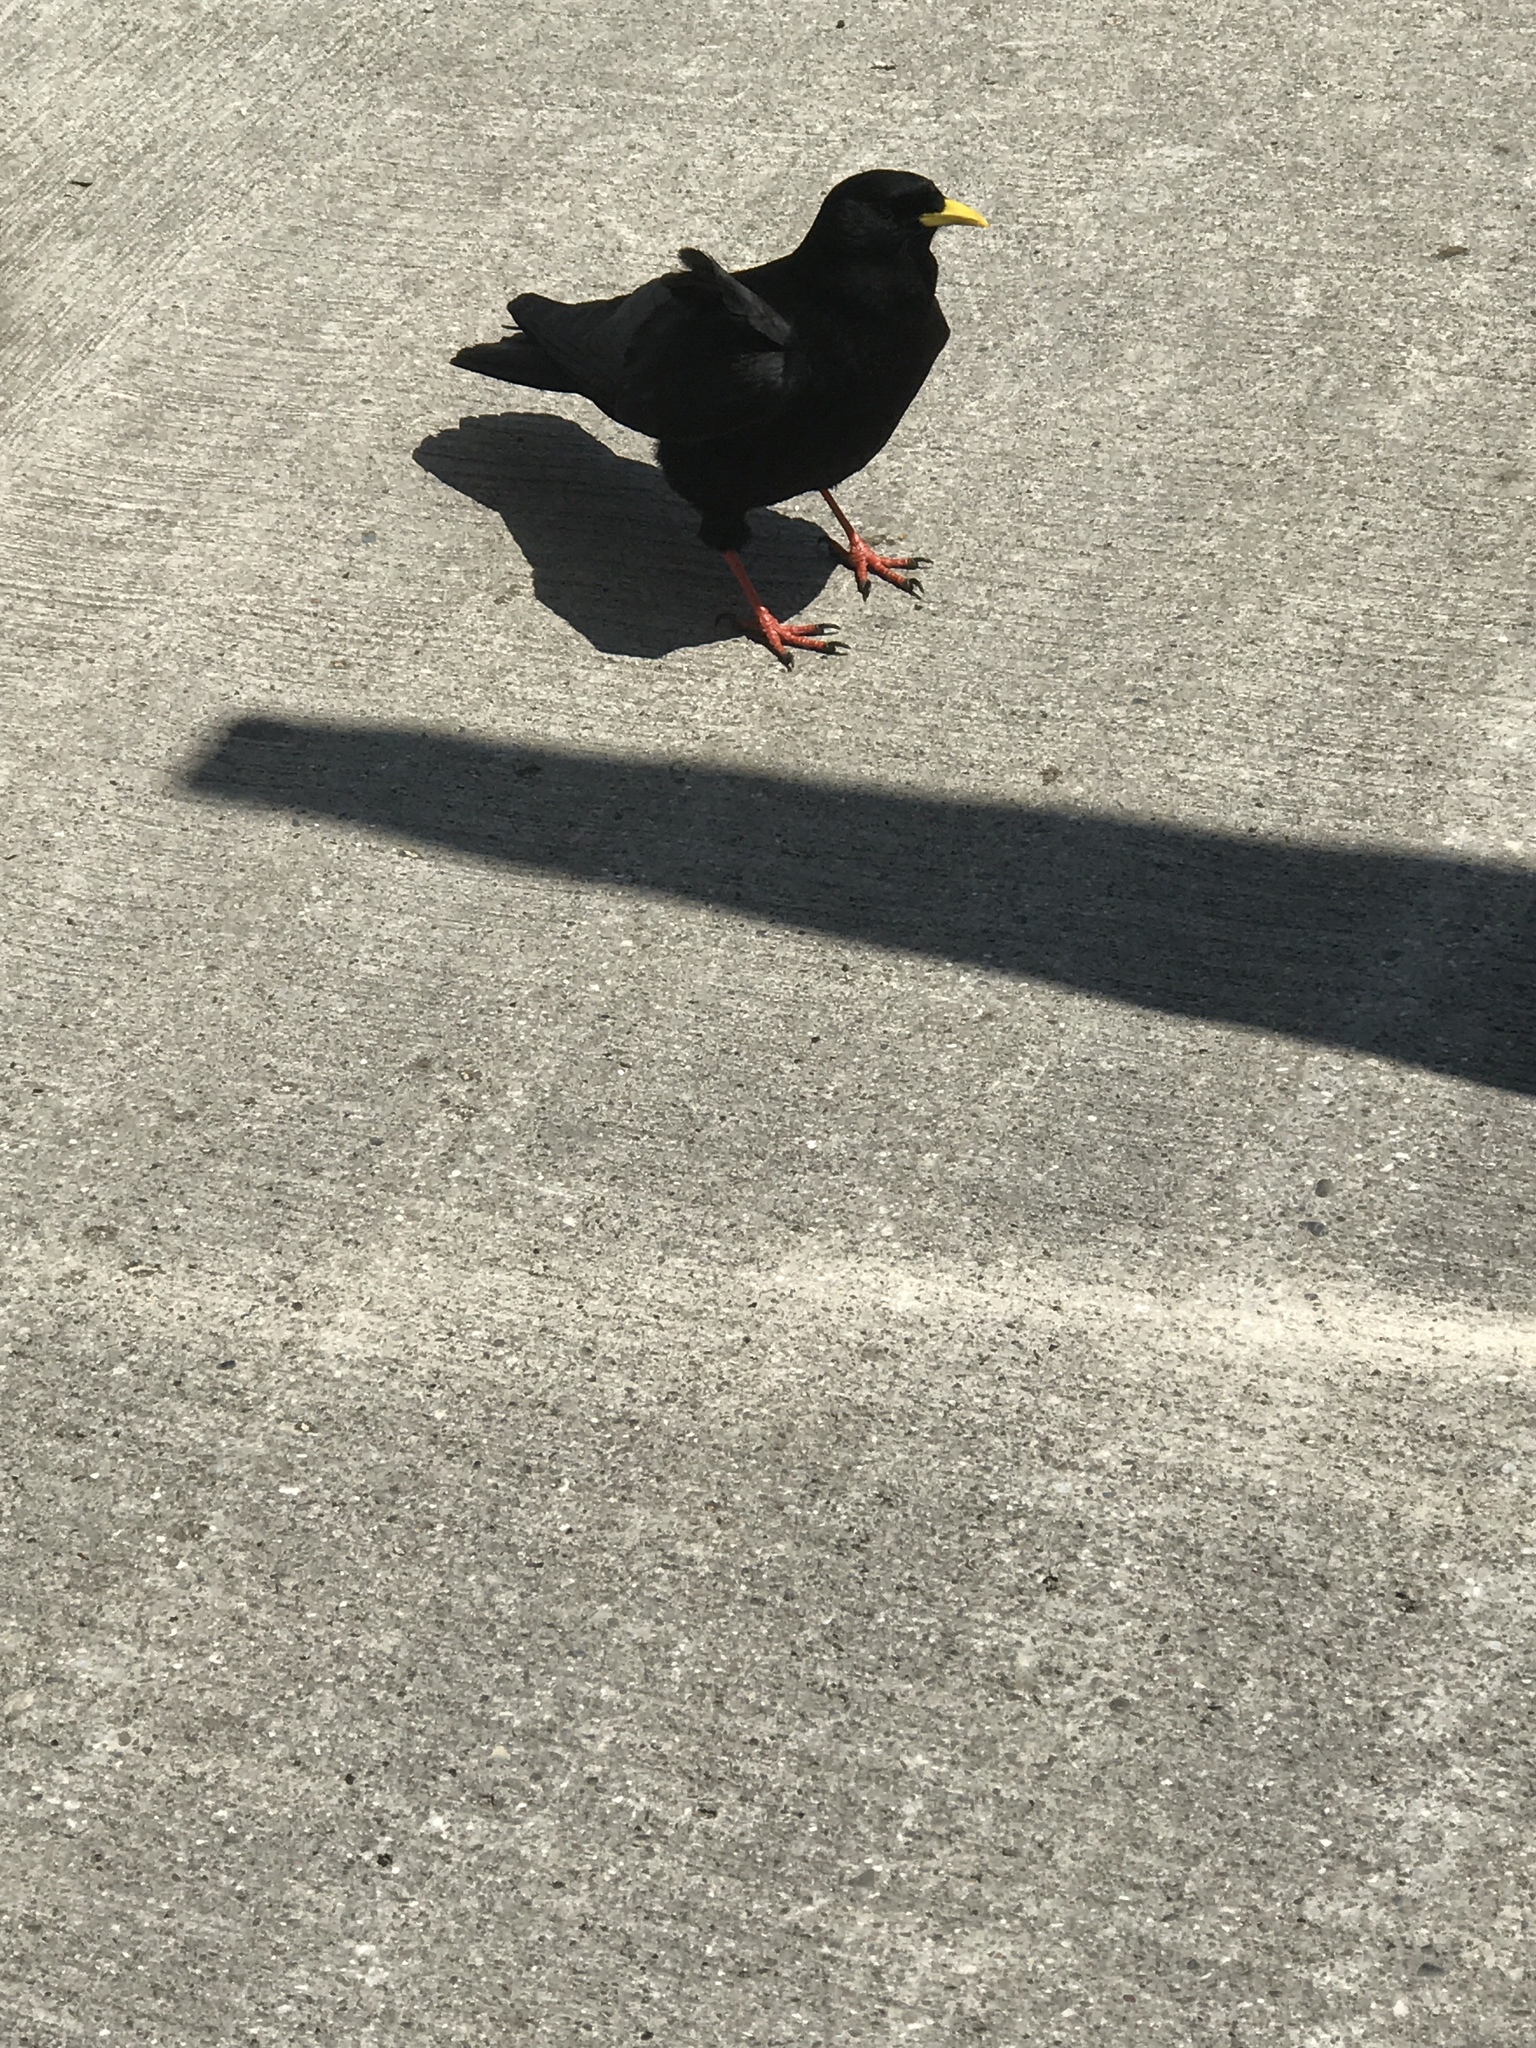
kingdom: Animalia
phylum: Chordata
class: Aves
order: Passeriformes
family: Corvidae
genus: Pyrrhocorax
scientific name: Pyrrhocorax graculus
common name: Alpine chough
